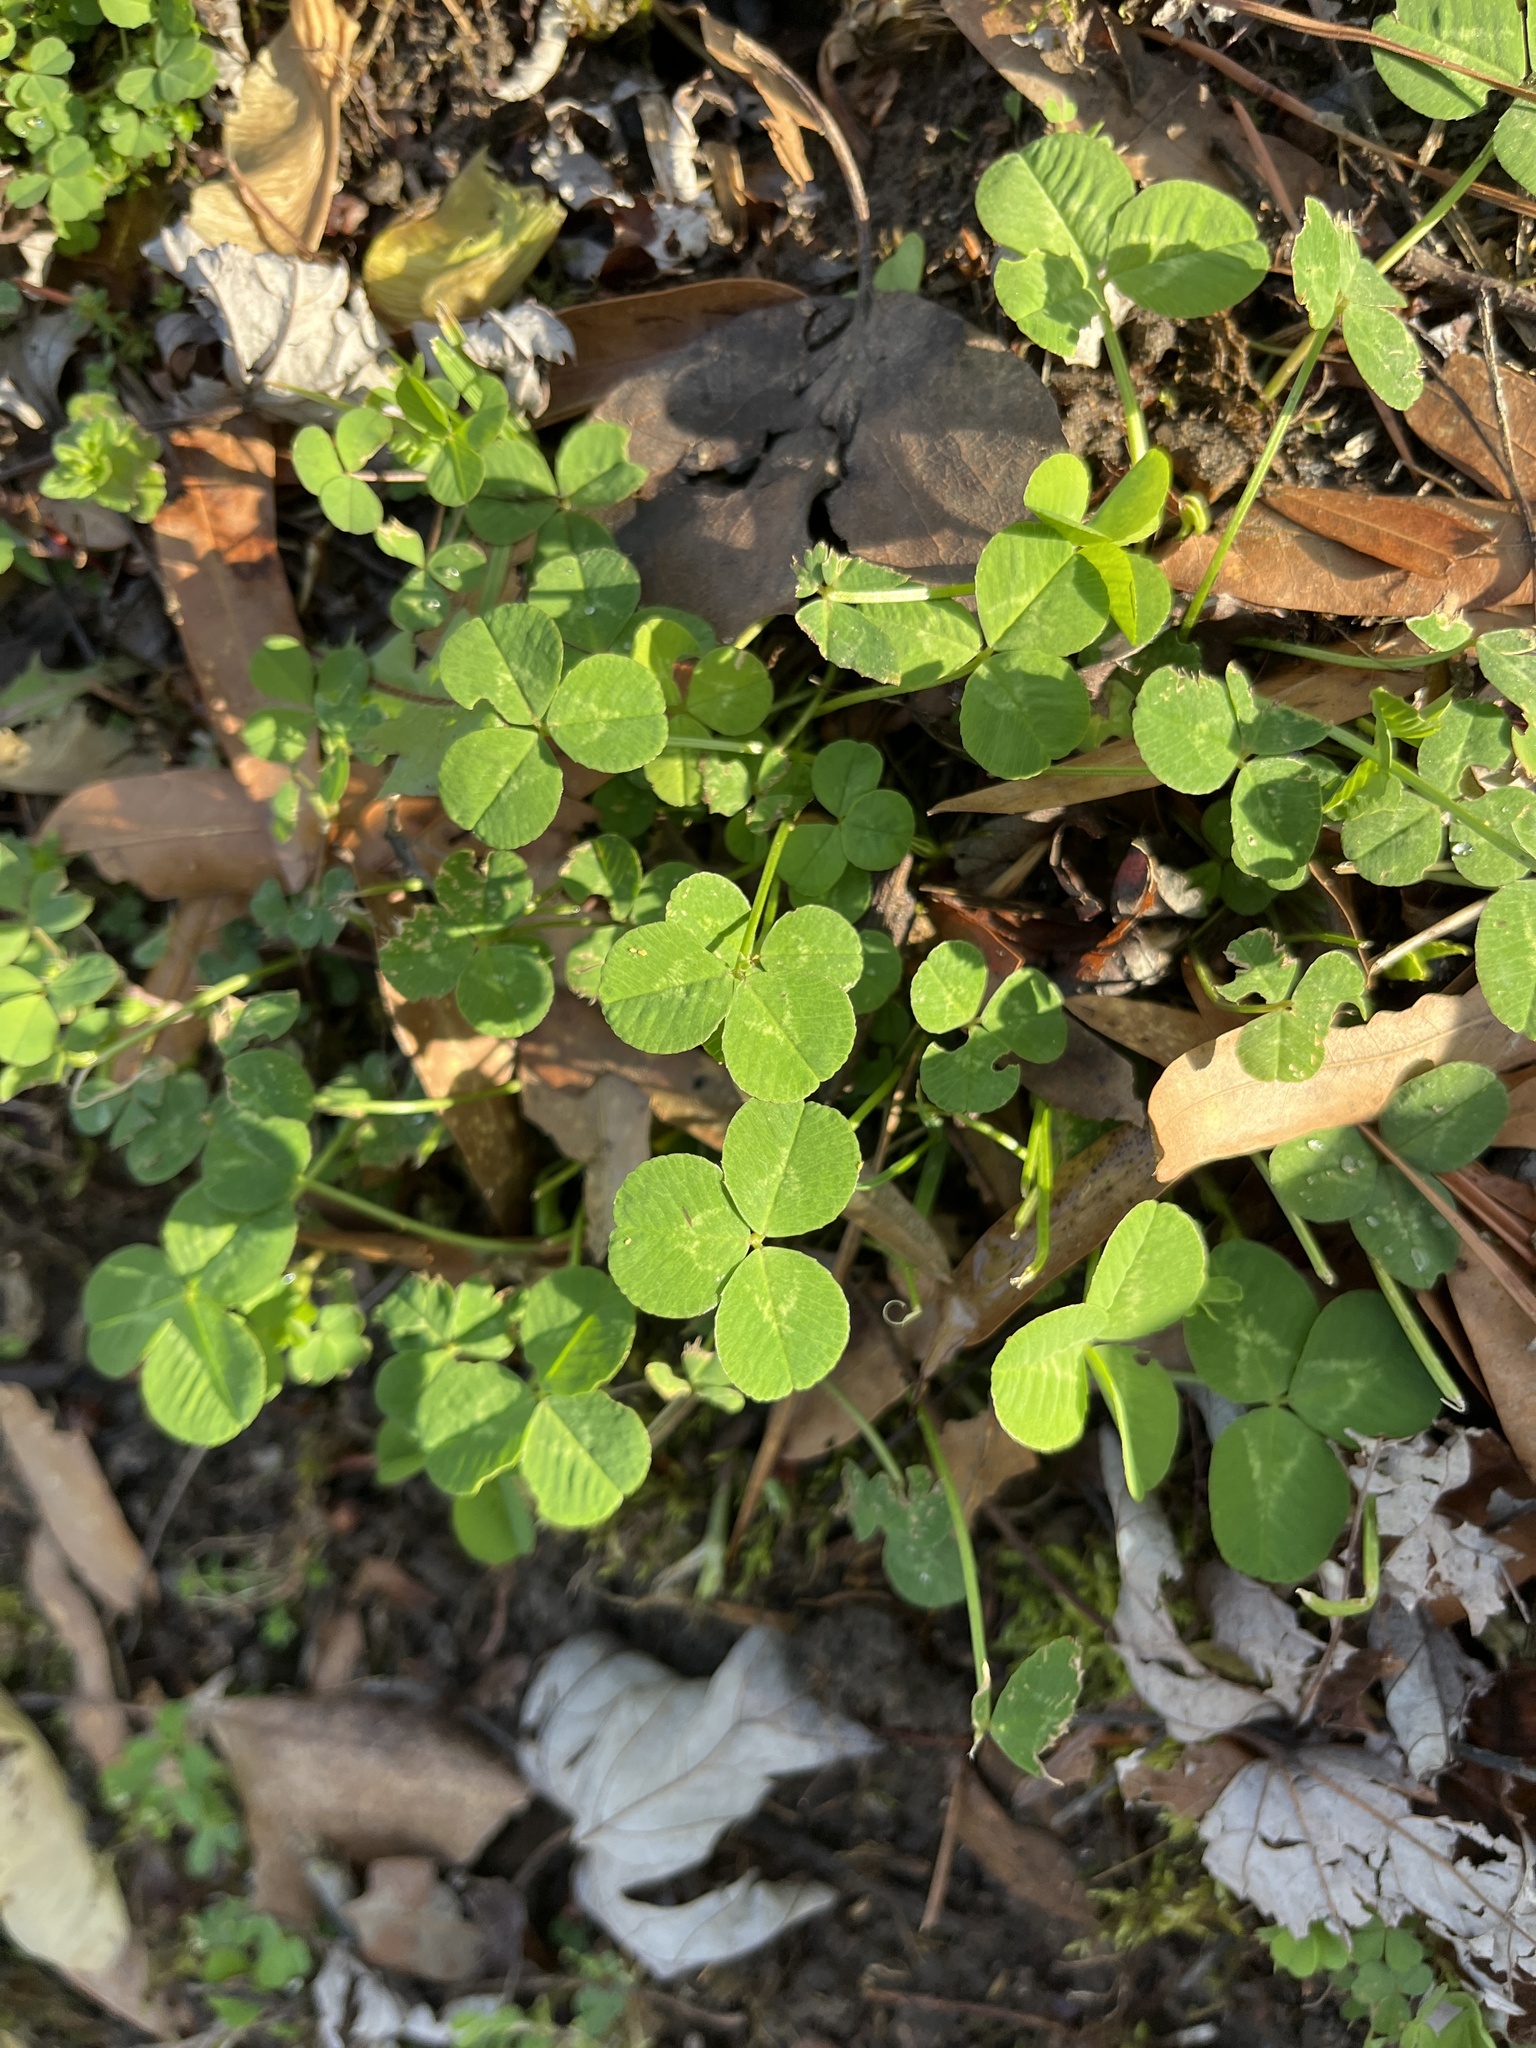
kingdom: Plantae
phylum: Tracheophyta
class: Magnoliopsida
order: Fabales
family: Fabaceae
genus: Trifolium
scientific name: Trifolium repens
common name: White clover
